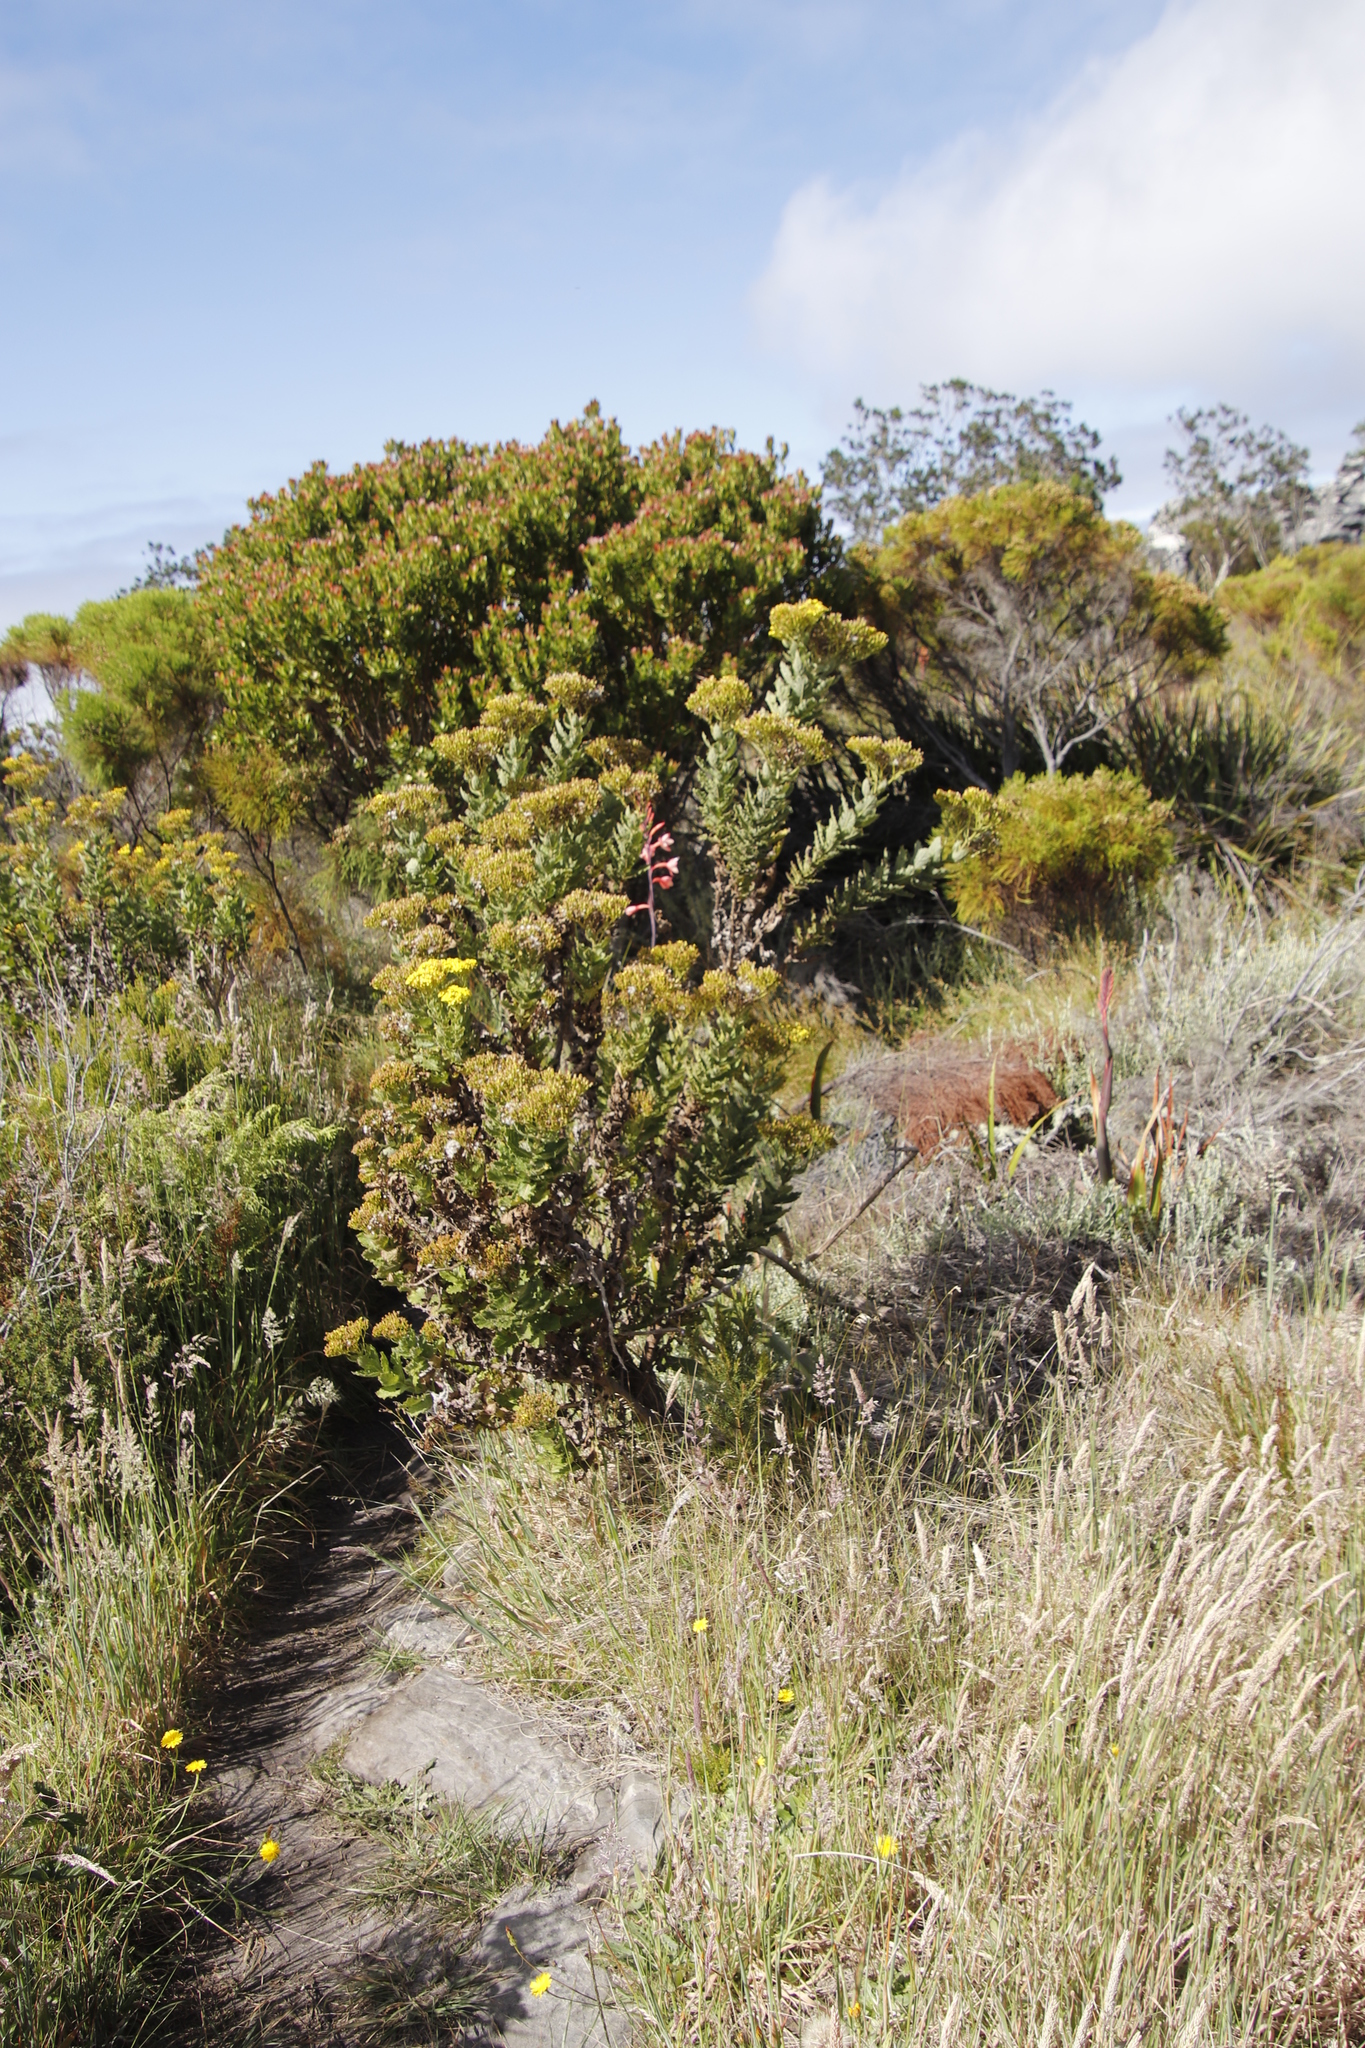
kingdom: Plantae
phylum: Tracheophyta
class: Magnoliopsida
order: Asterales
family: Asteraceae
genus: Senecio
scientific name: Senecio rigidus
